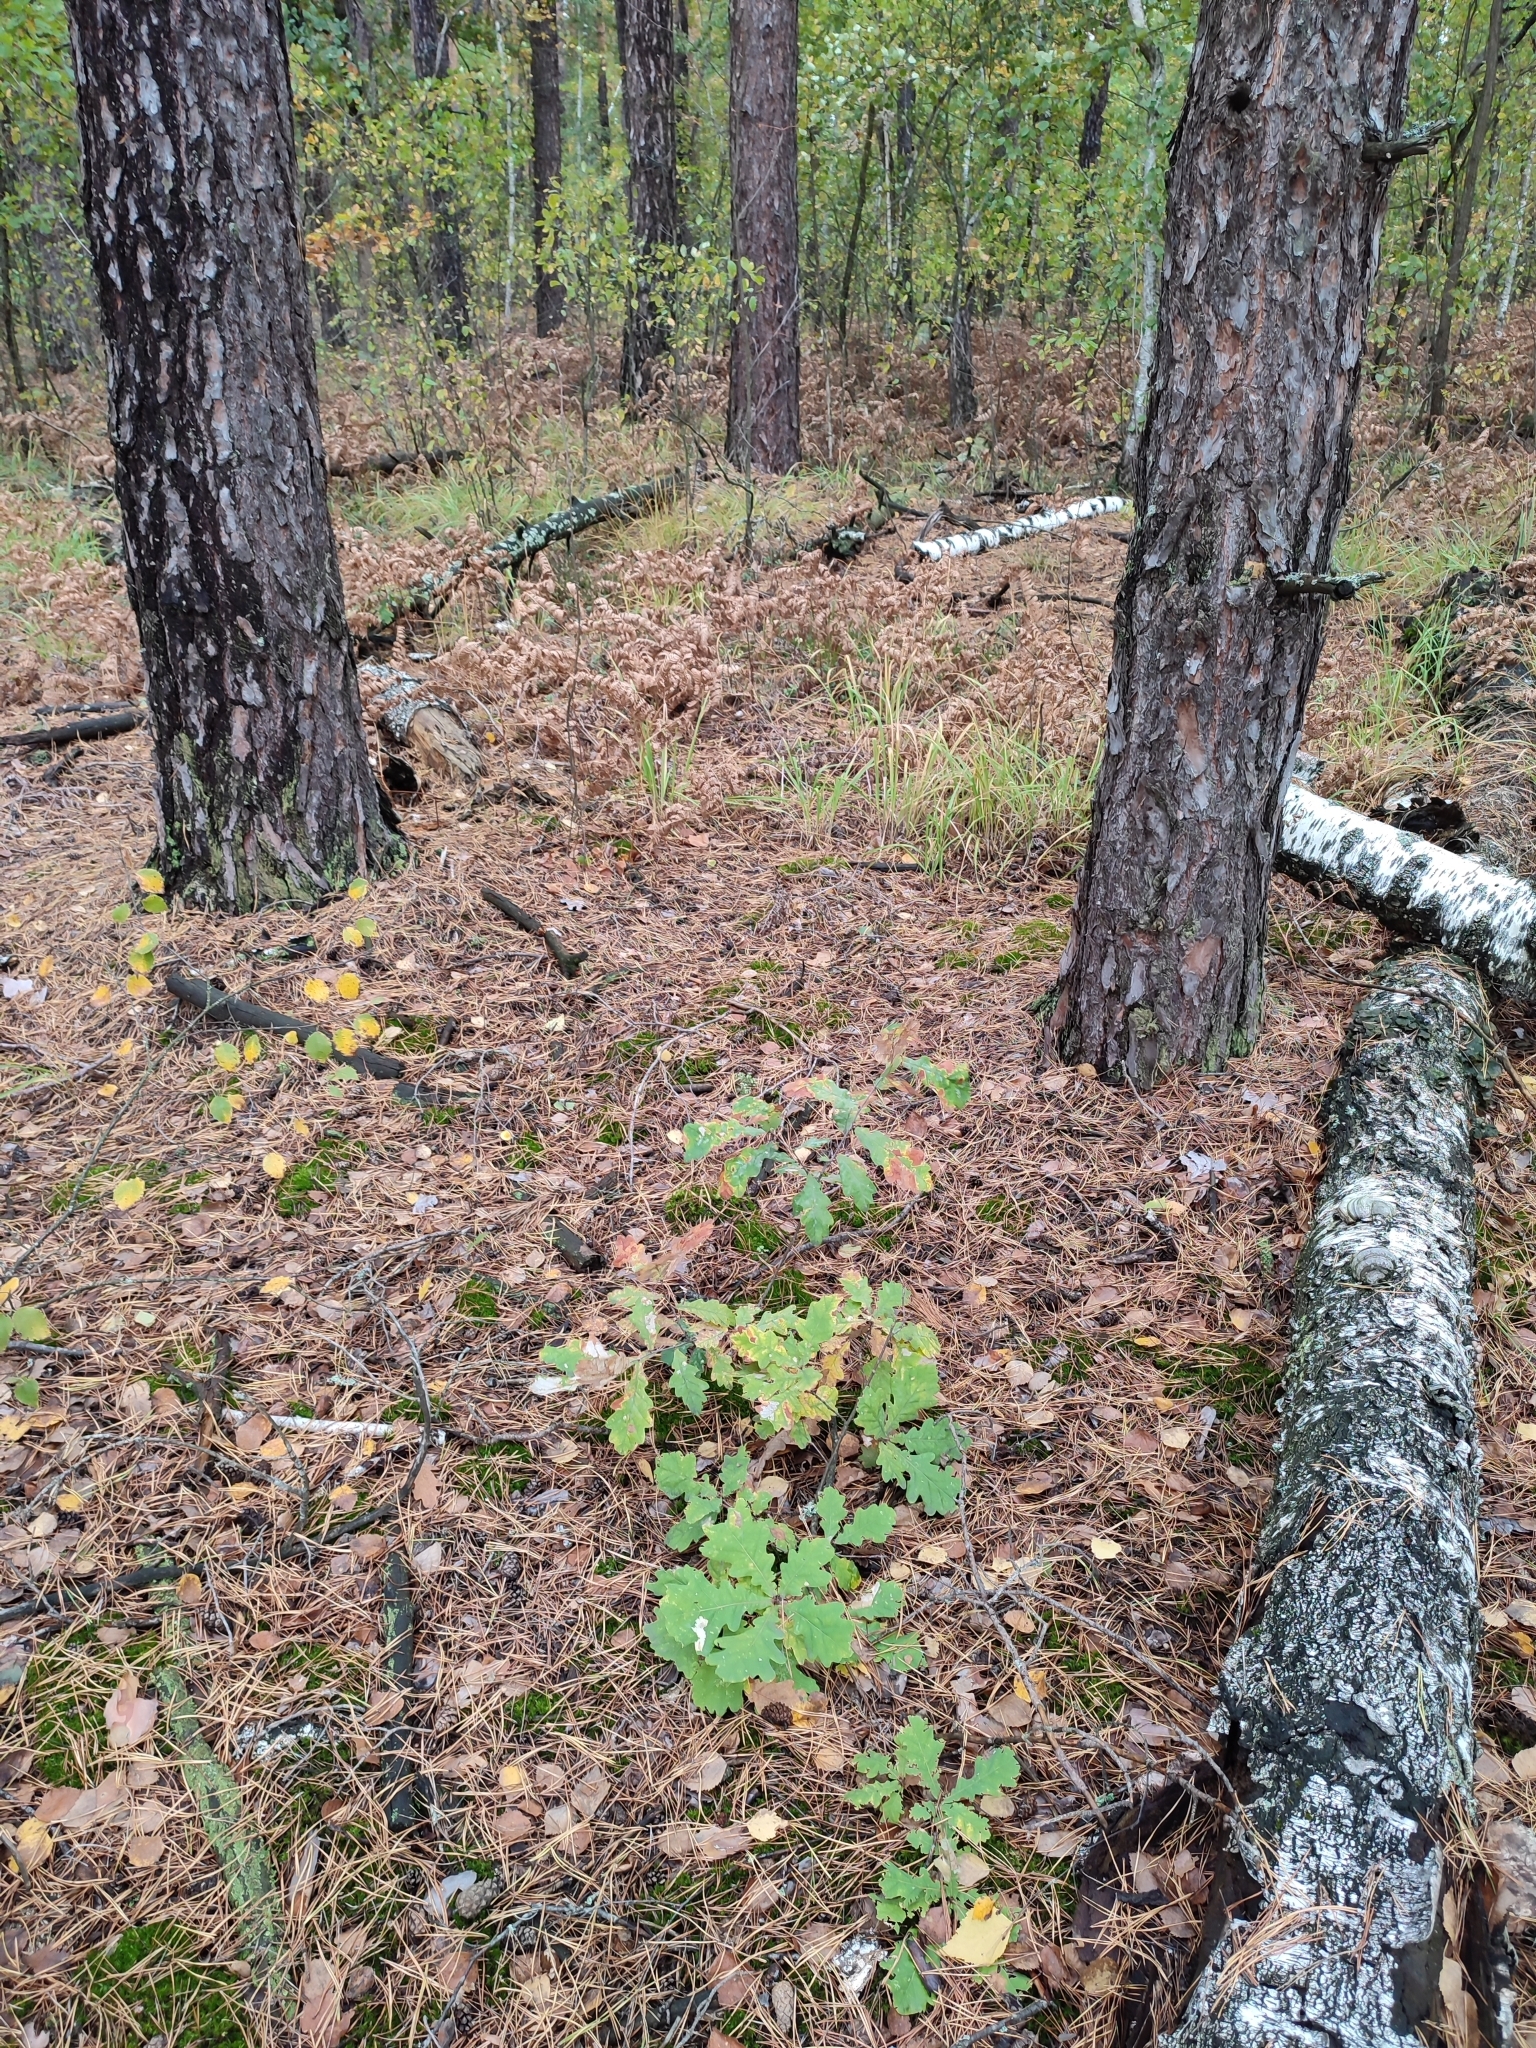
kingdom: Plantae
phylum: Tracheophyta
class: Magnoliopsida
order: Fagales
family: Fagaceae
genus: Quercus
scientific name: Quercus robur
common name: Pedunculate oak
